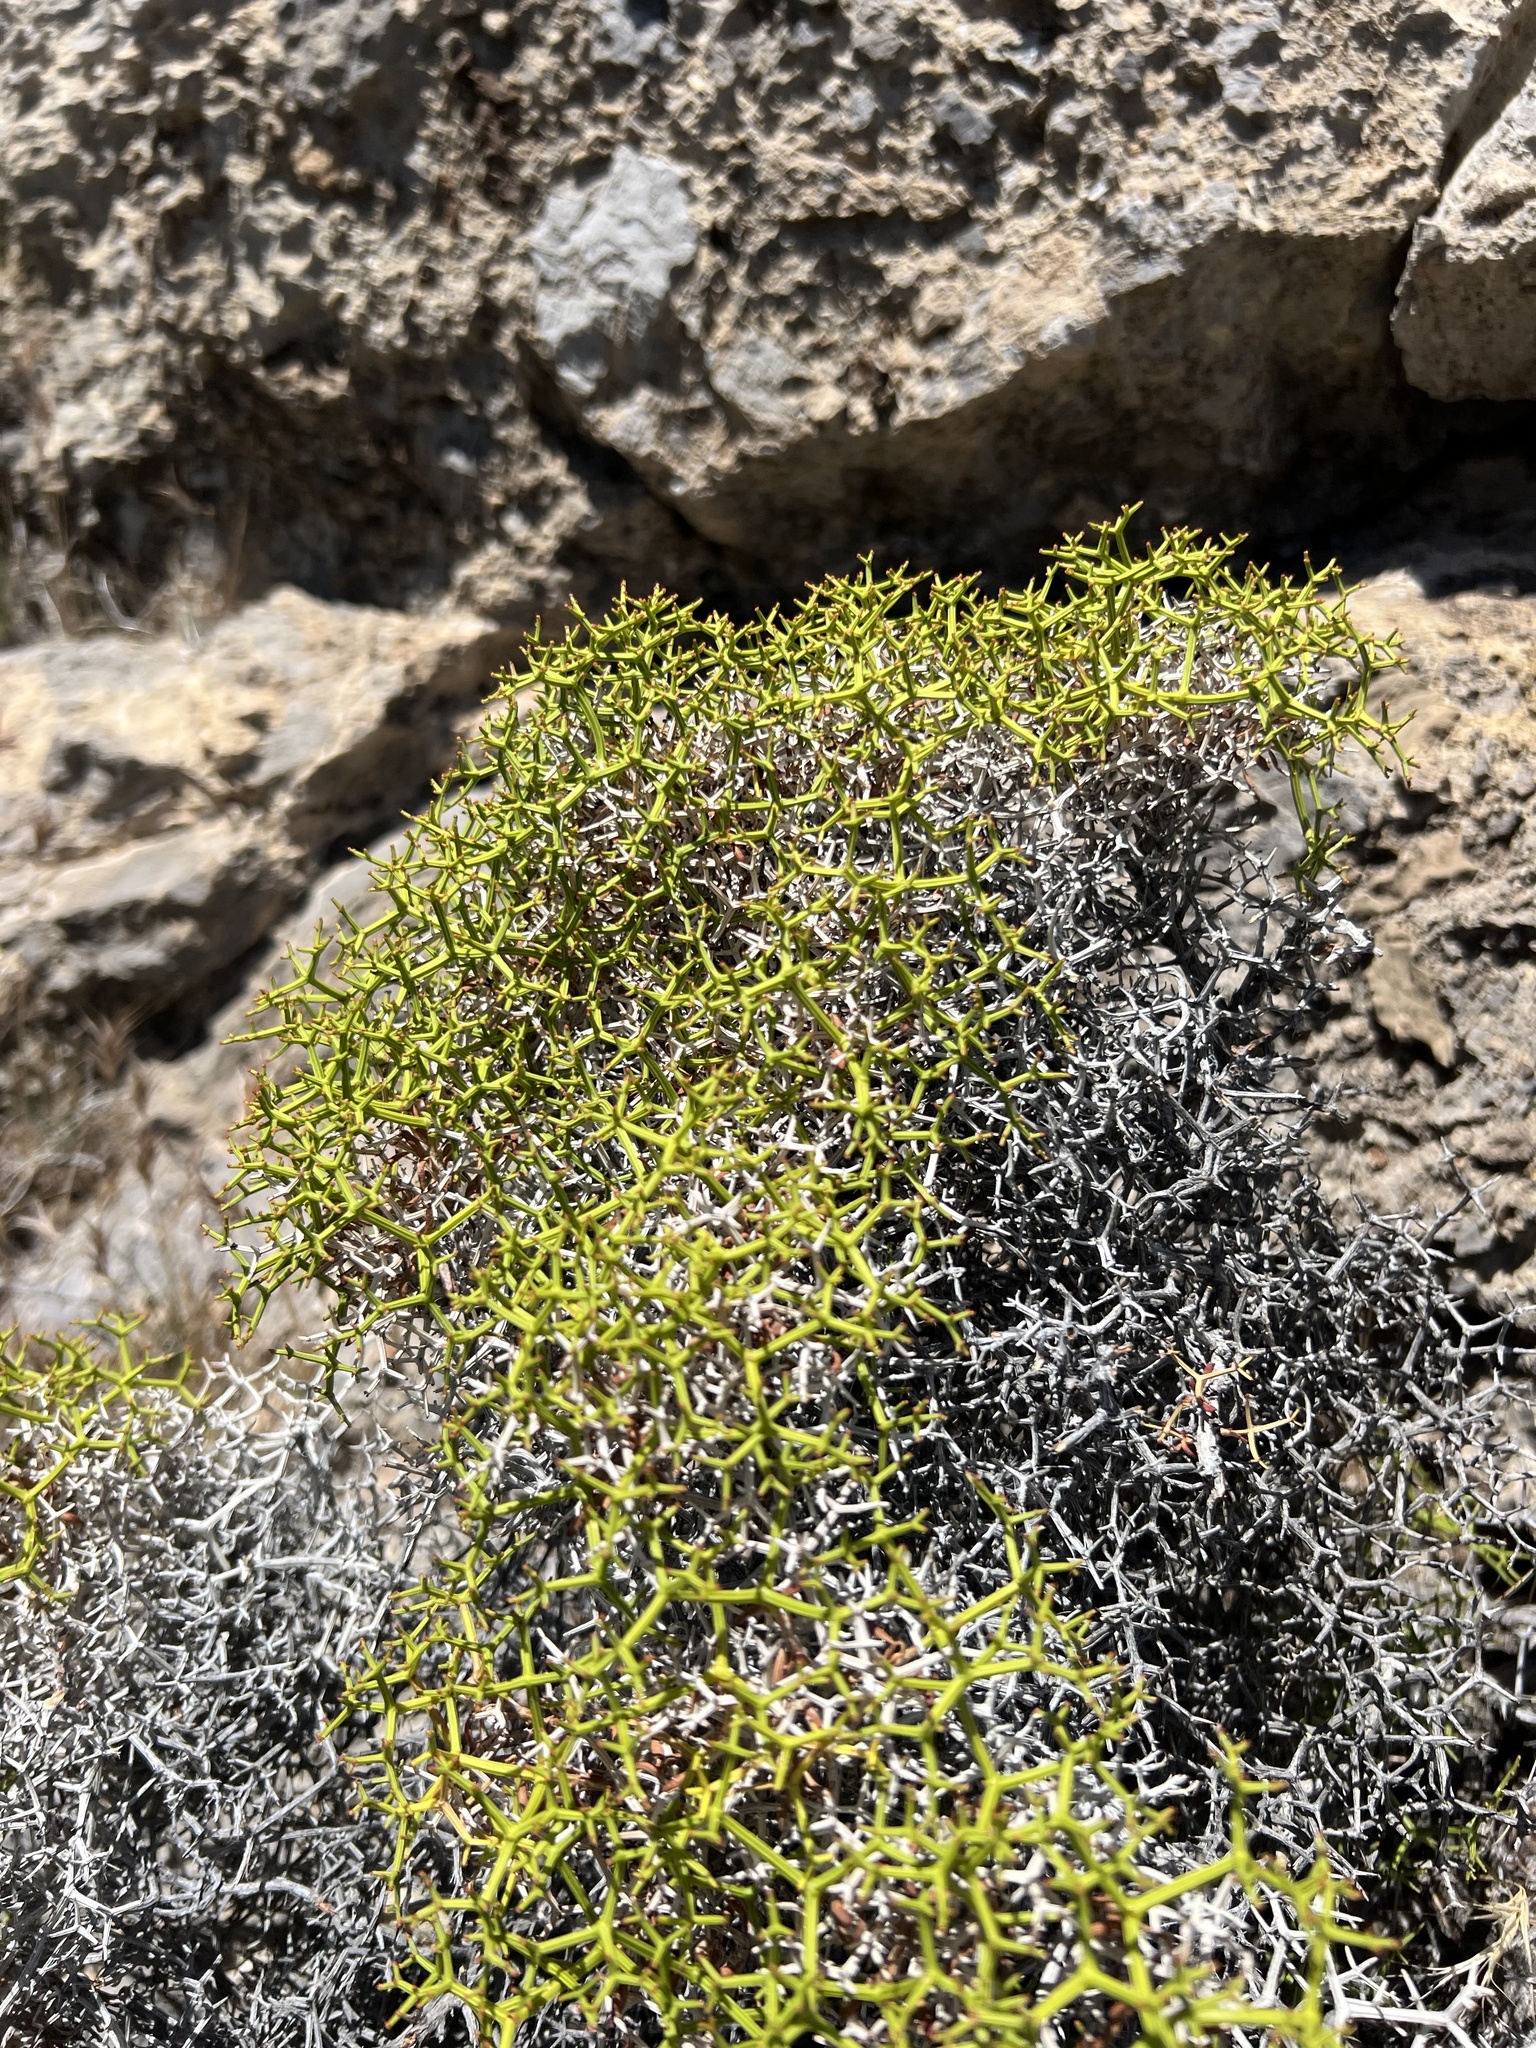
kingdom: Plantae
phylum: Tracheophyta
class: Magnoliopsida
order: Caryophyllales
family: Polygonaceae
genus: Eriogonum
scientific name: Eriogonum heermannii
